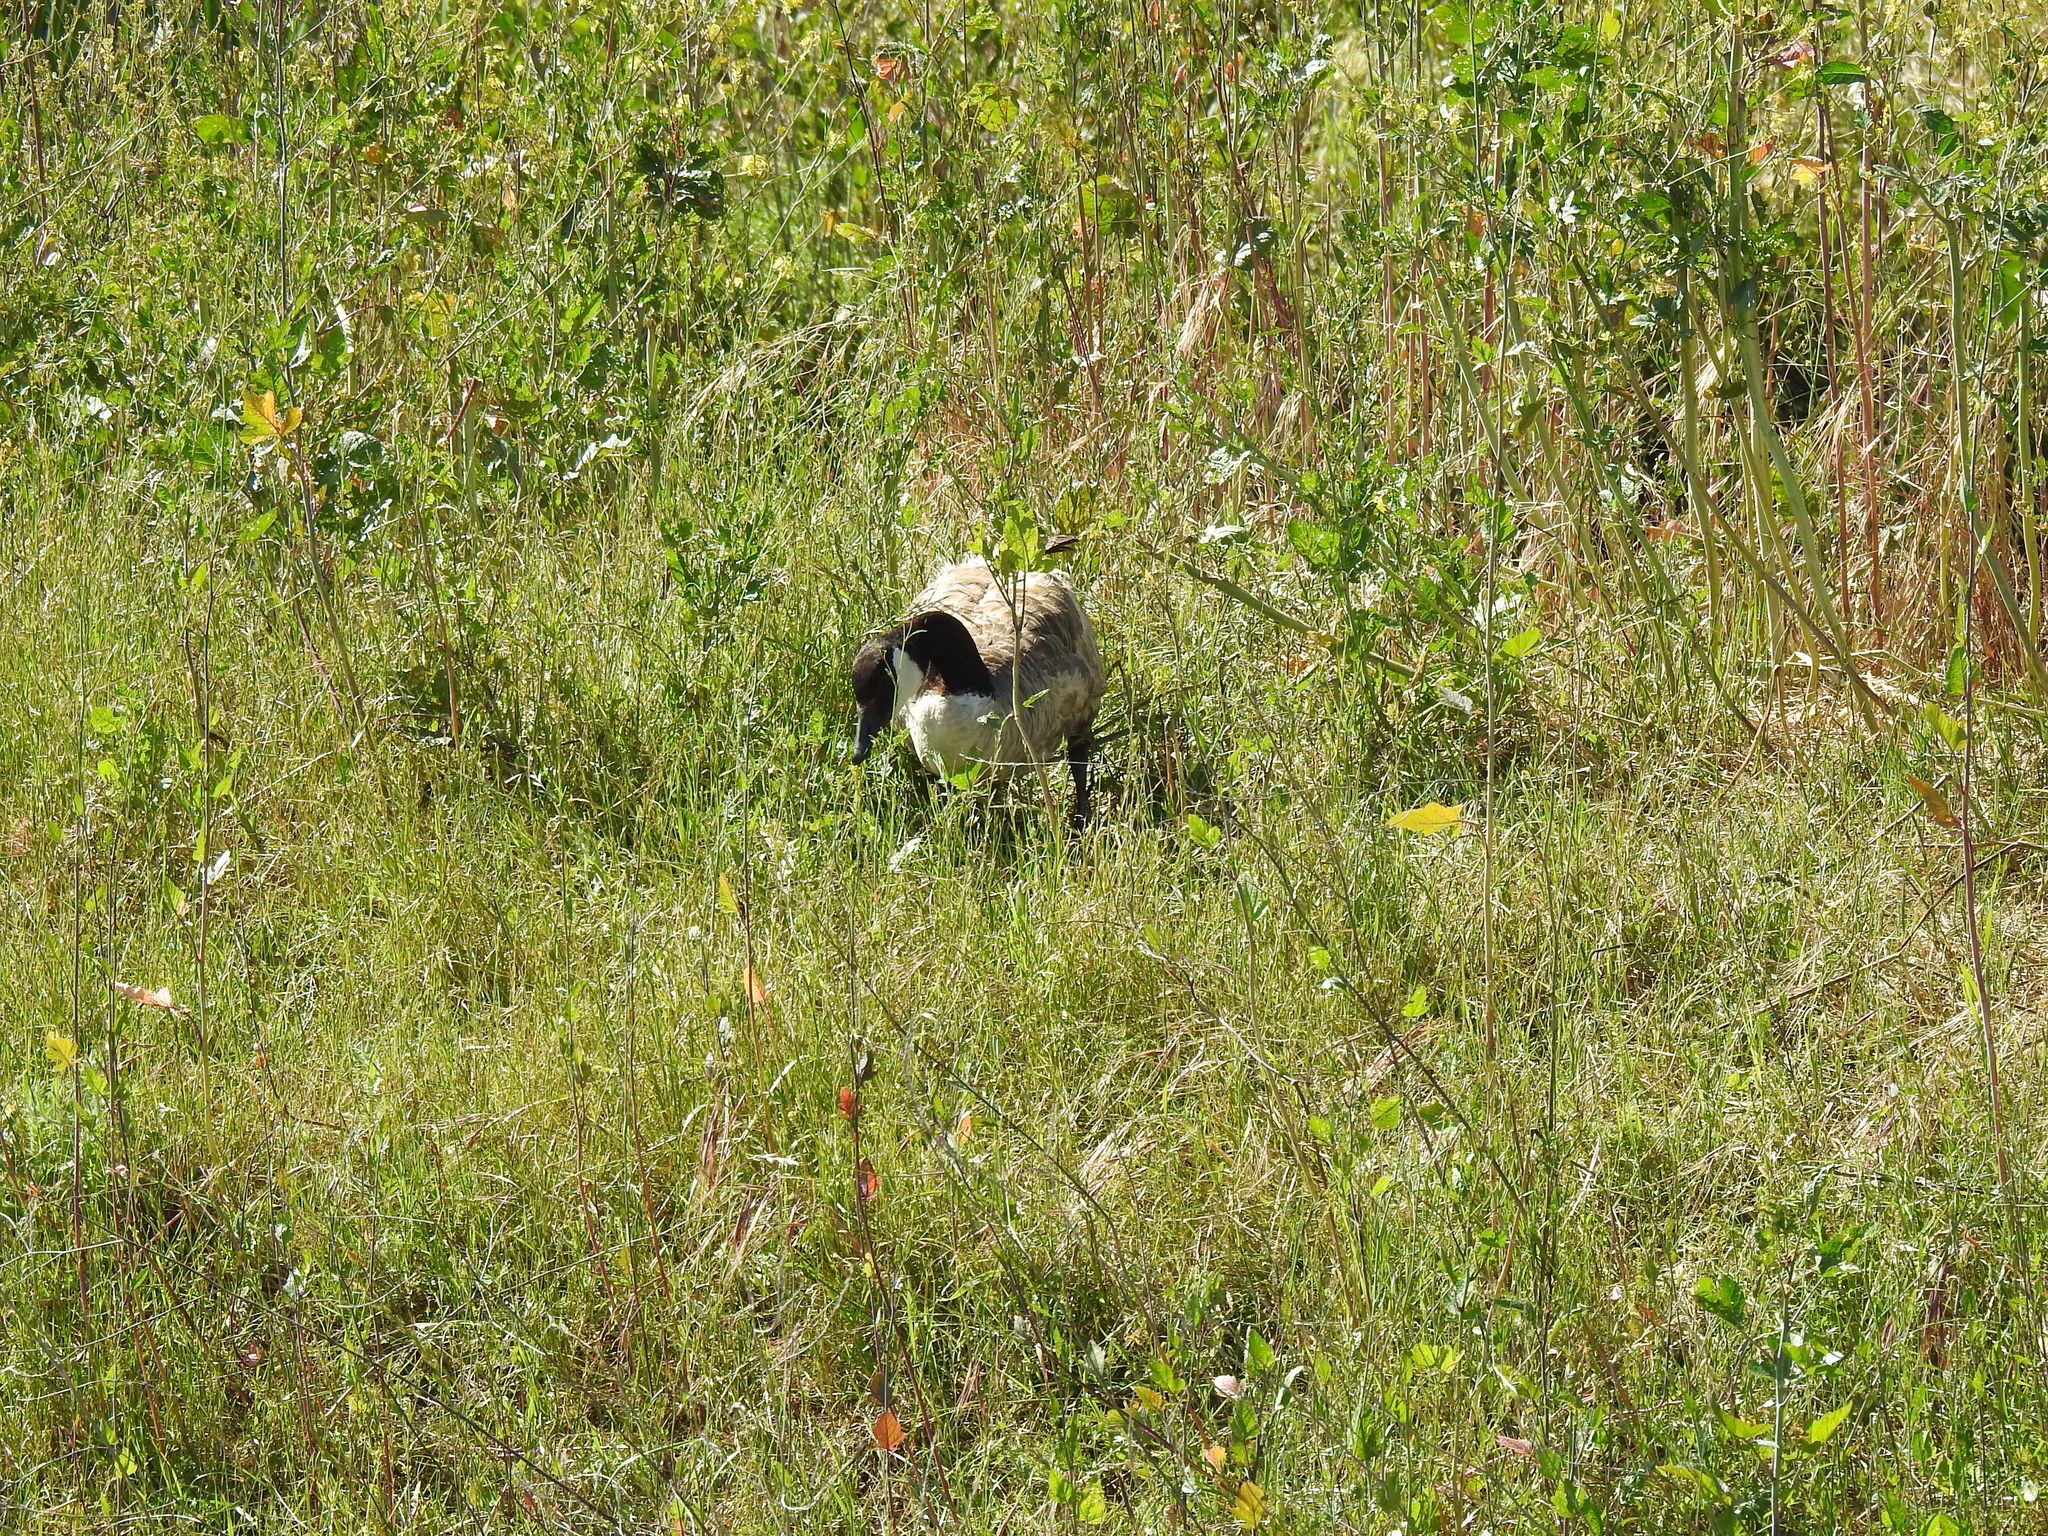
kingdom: Animalia
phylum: Chordata
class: Aves
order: Anseriformes
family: Anatidae
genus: Branta
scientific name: Branta canadensis
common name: Canada goose
